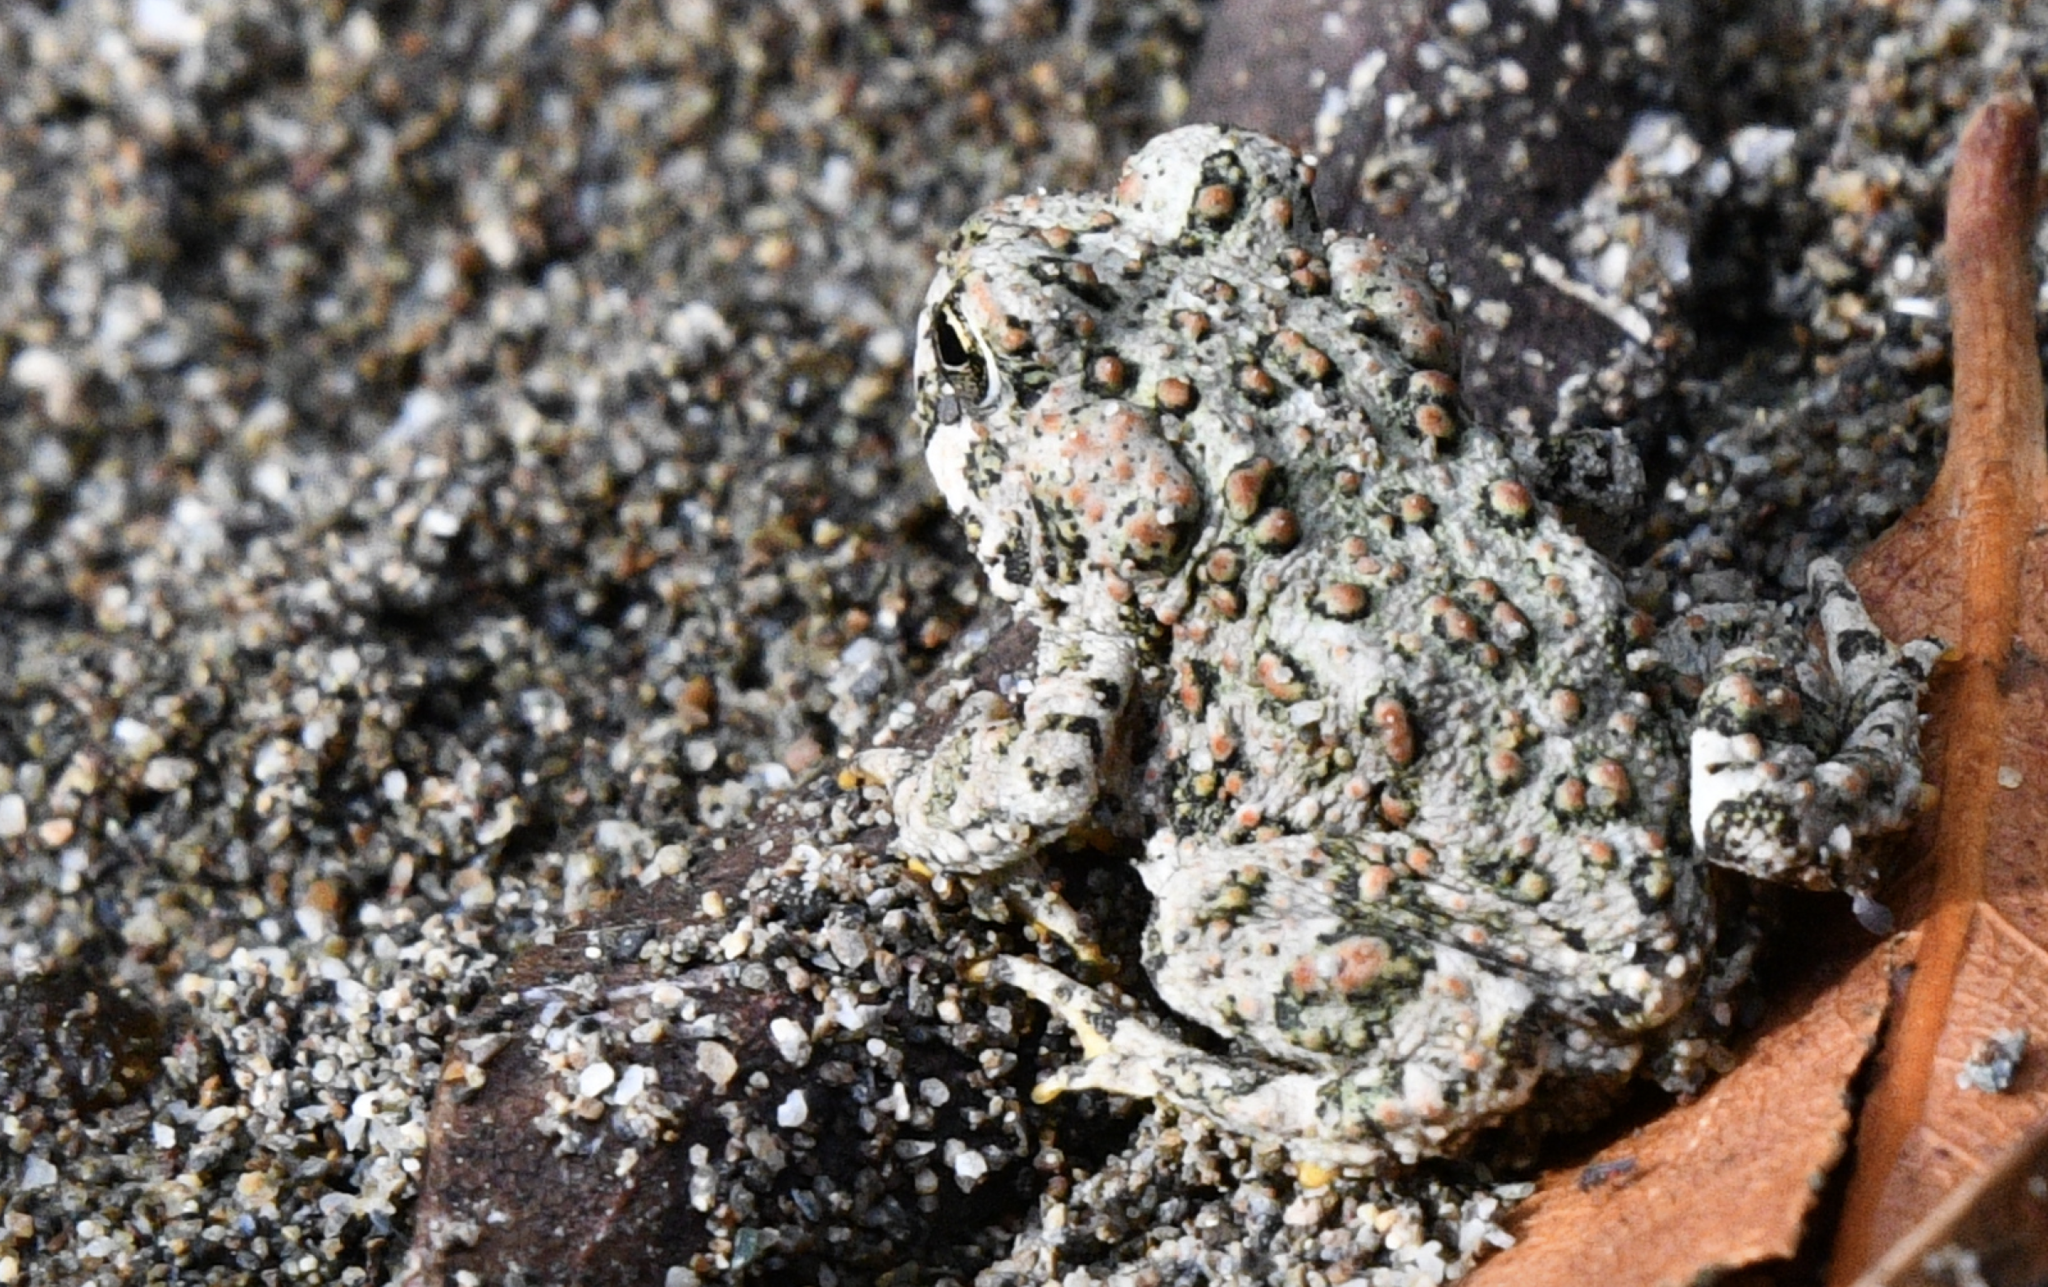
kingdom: Animalia
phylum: Chordata
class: Amphibia
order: Anura
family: Bufonidae
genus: Anaxyrus
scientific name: Anaxyrus boreas
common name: Western toad
